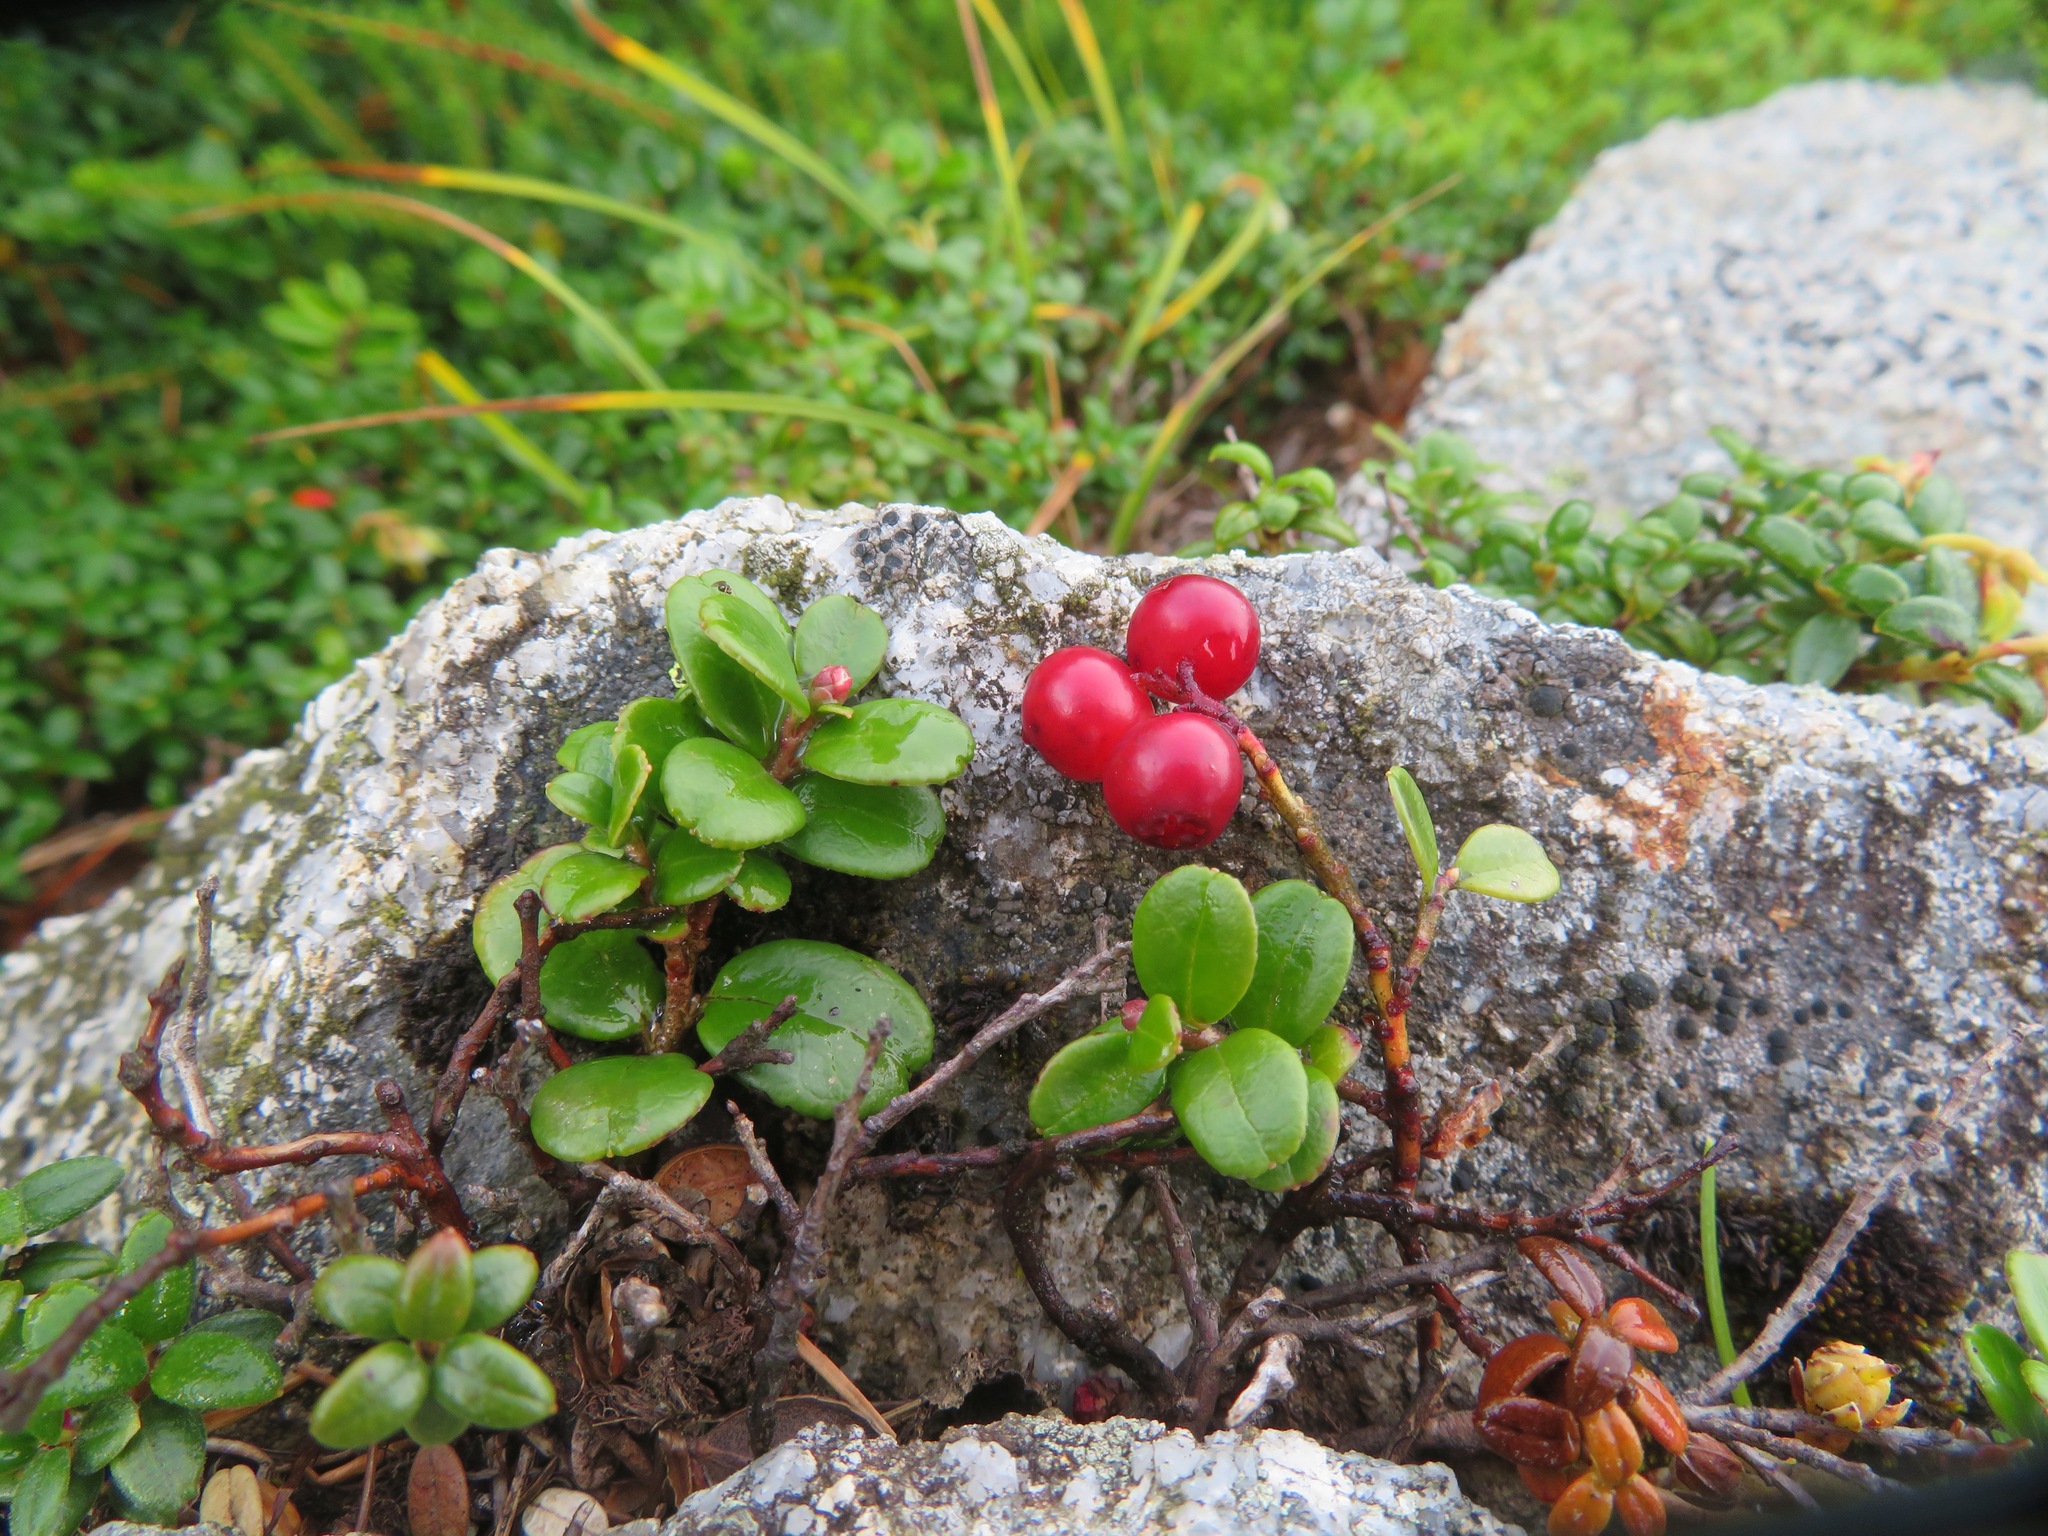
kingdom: Plantae
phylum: Tracheophyta
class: Magnoliopsida
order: Ericales
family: Ericaceae
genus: Vaccinium
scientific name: Vaccinium vitis-idaea
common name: Cowberry
